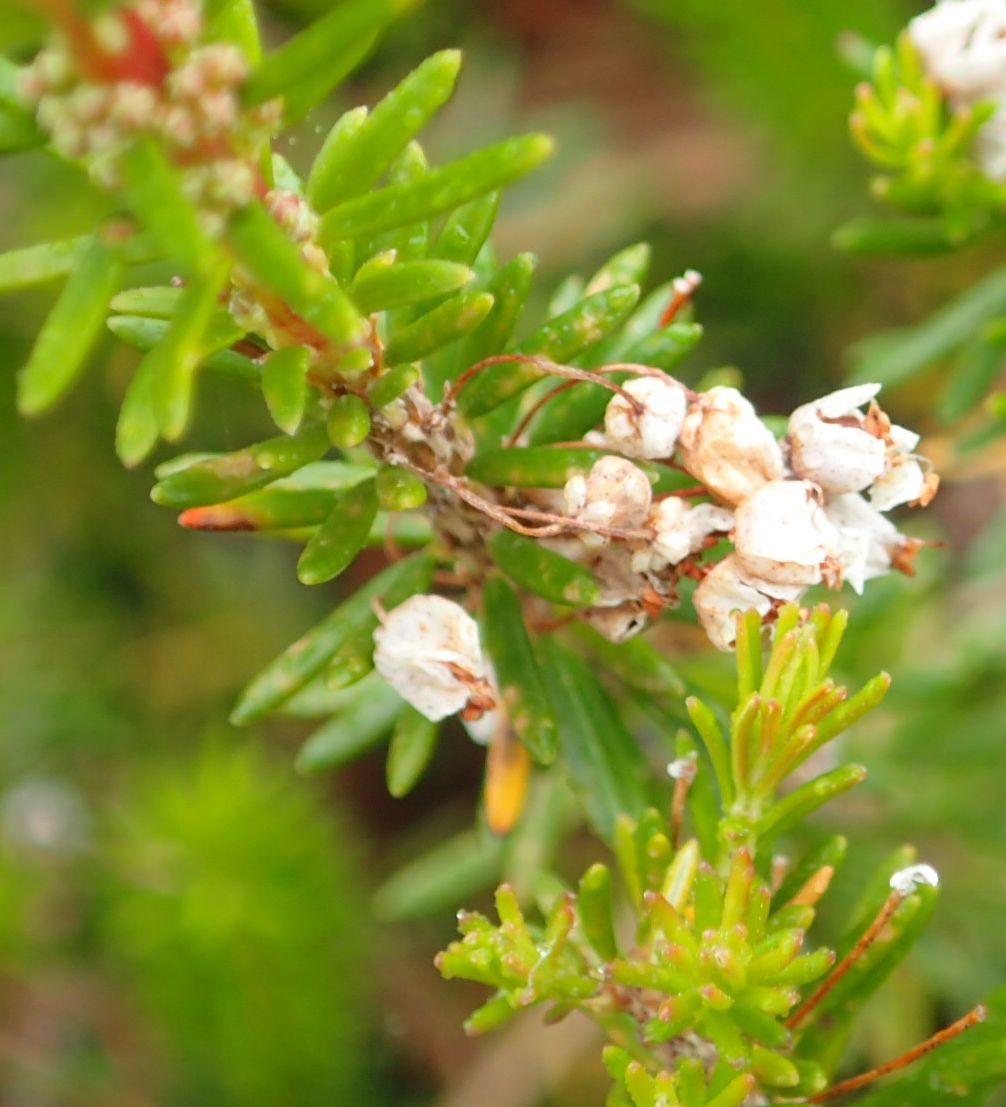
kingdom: Plantae
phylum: Tracheophyta
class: Magnoliopsida
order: Ericales
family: Ericaceae
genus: Erica
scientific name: Erica vagans
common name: Cornish heath
